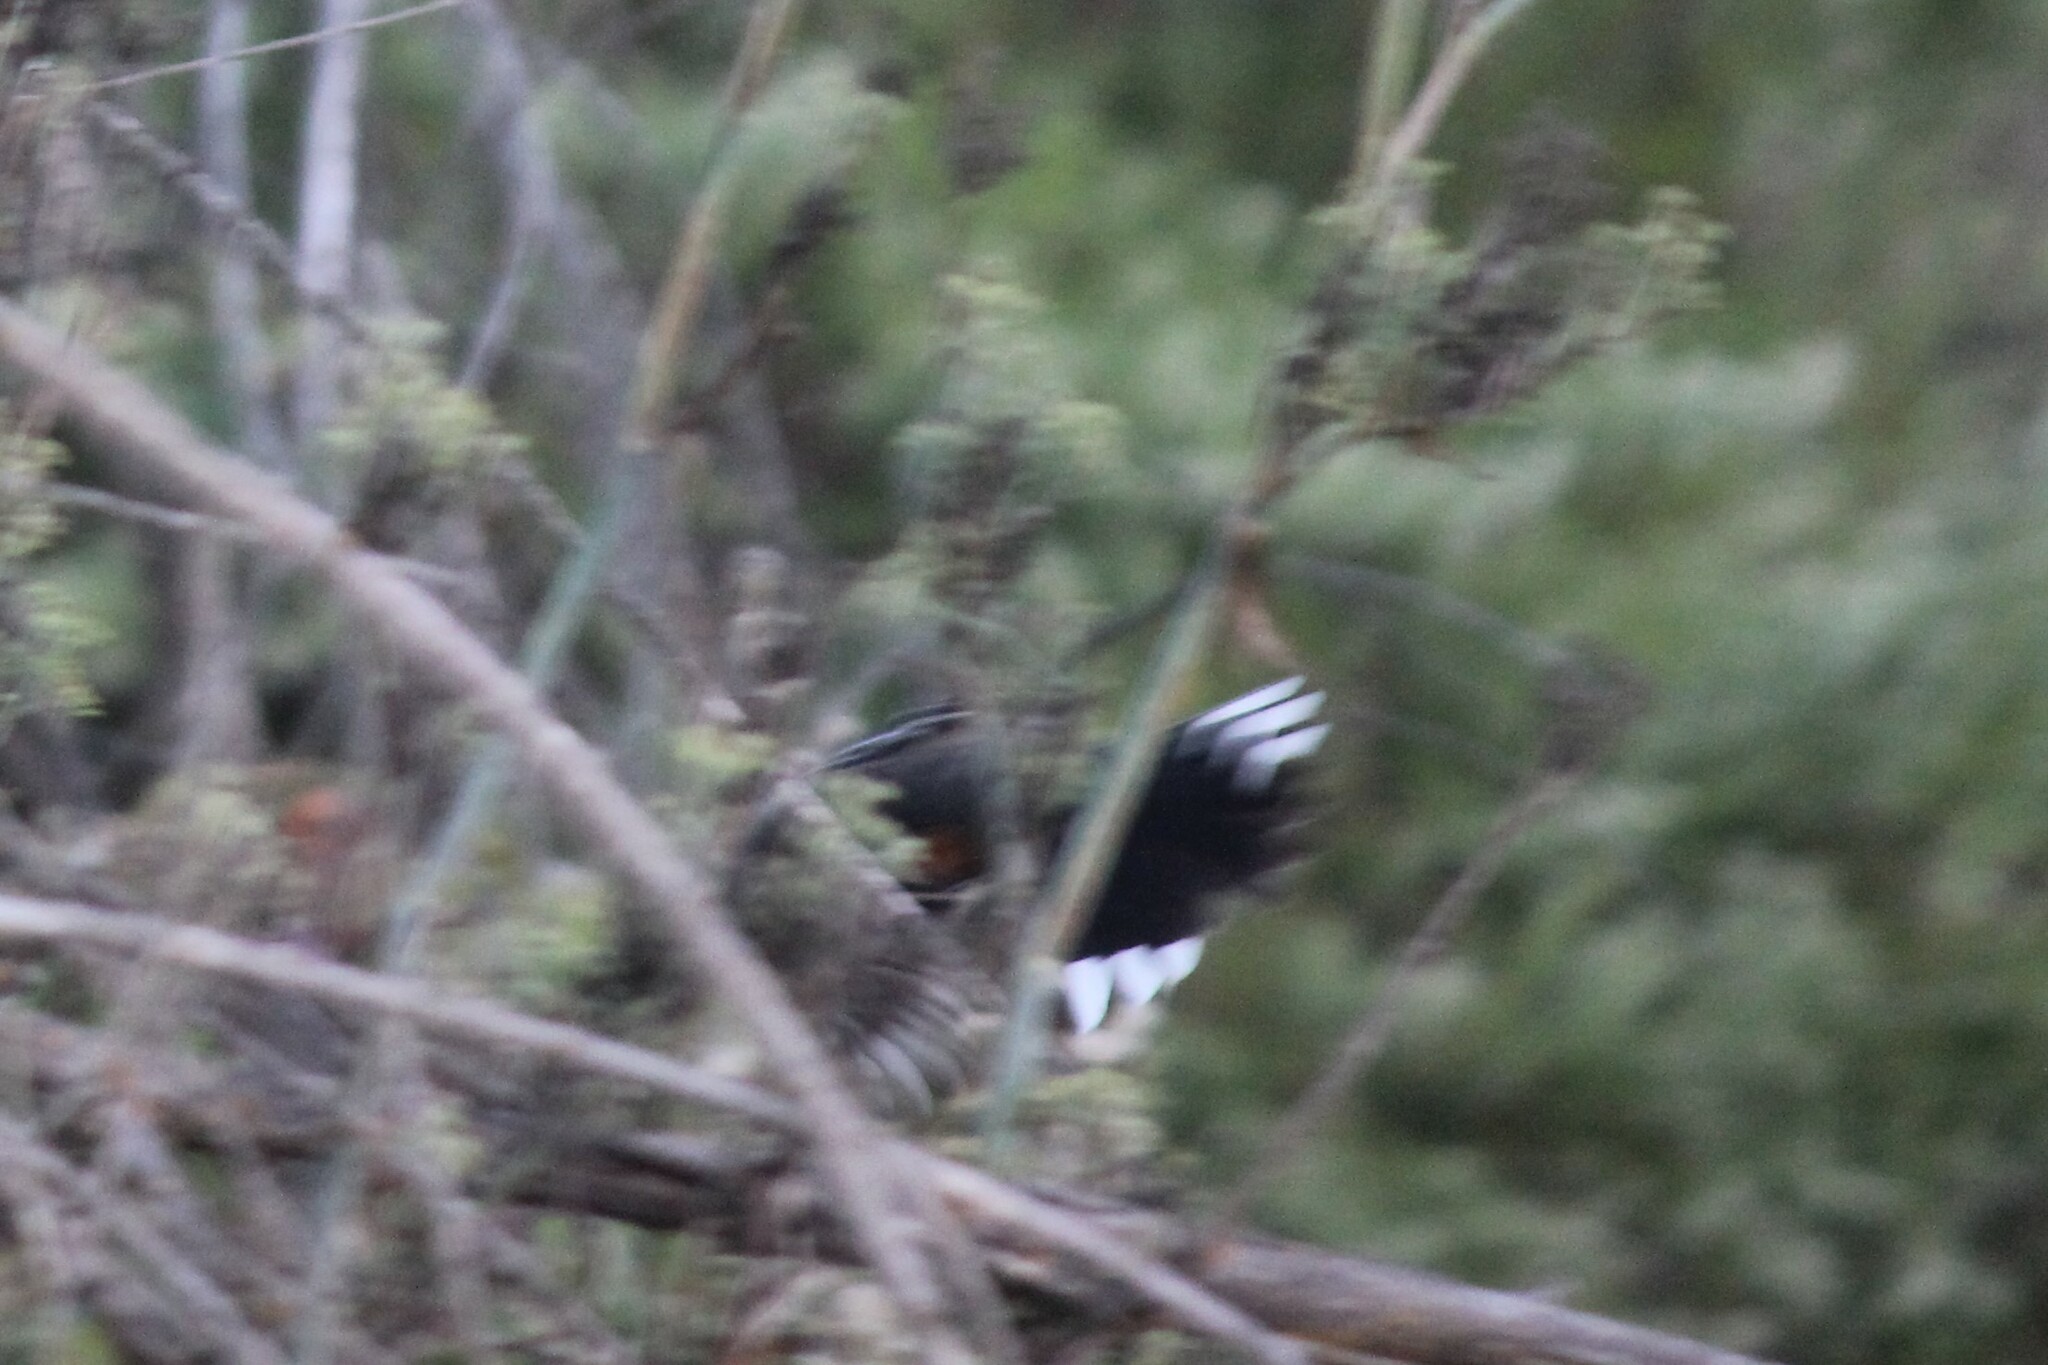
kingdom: Animalia
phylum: Chordata
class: Aves
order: Passeriformes
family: Passerellidae
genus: Pipilo
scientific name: Pipilo maculatus
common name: Spotted towhee
